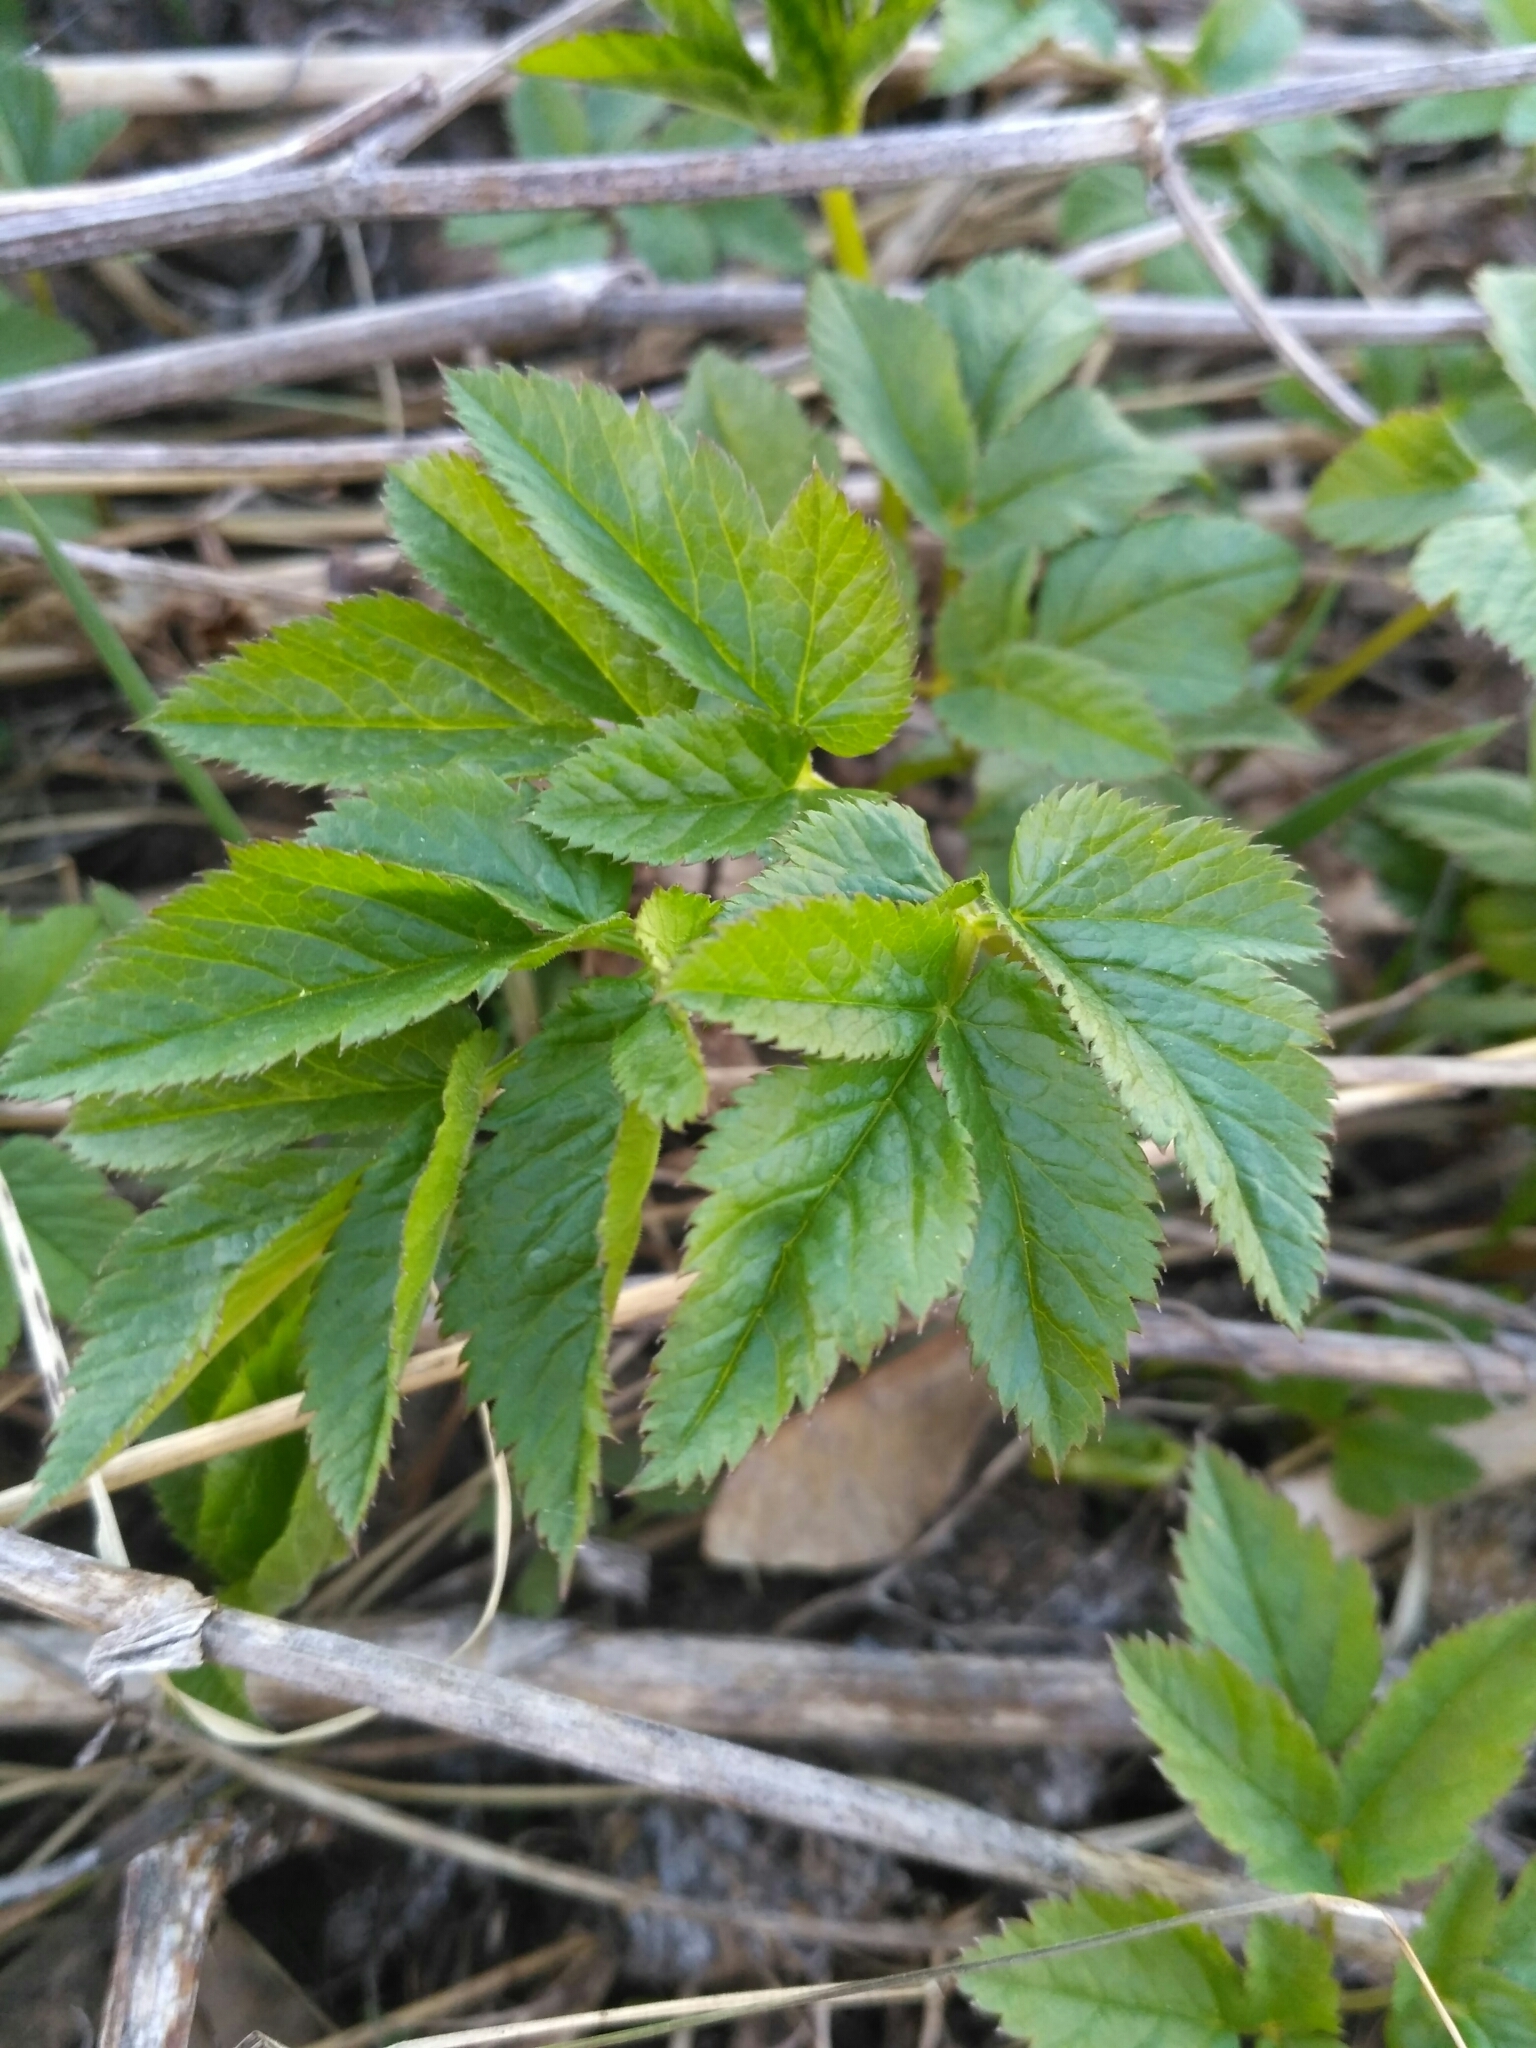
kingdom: Plantae
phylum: Tracheophyta
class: Magnoliopsida
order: Apiales
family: Apiaceae
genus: Aegopodium
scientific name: Aegopodium podagraria
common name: Ground-elder
